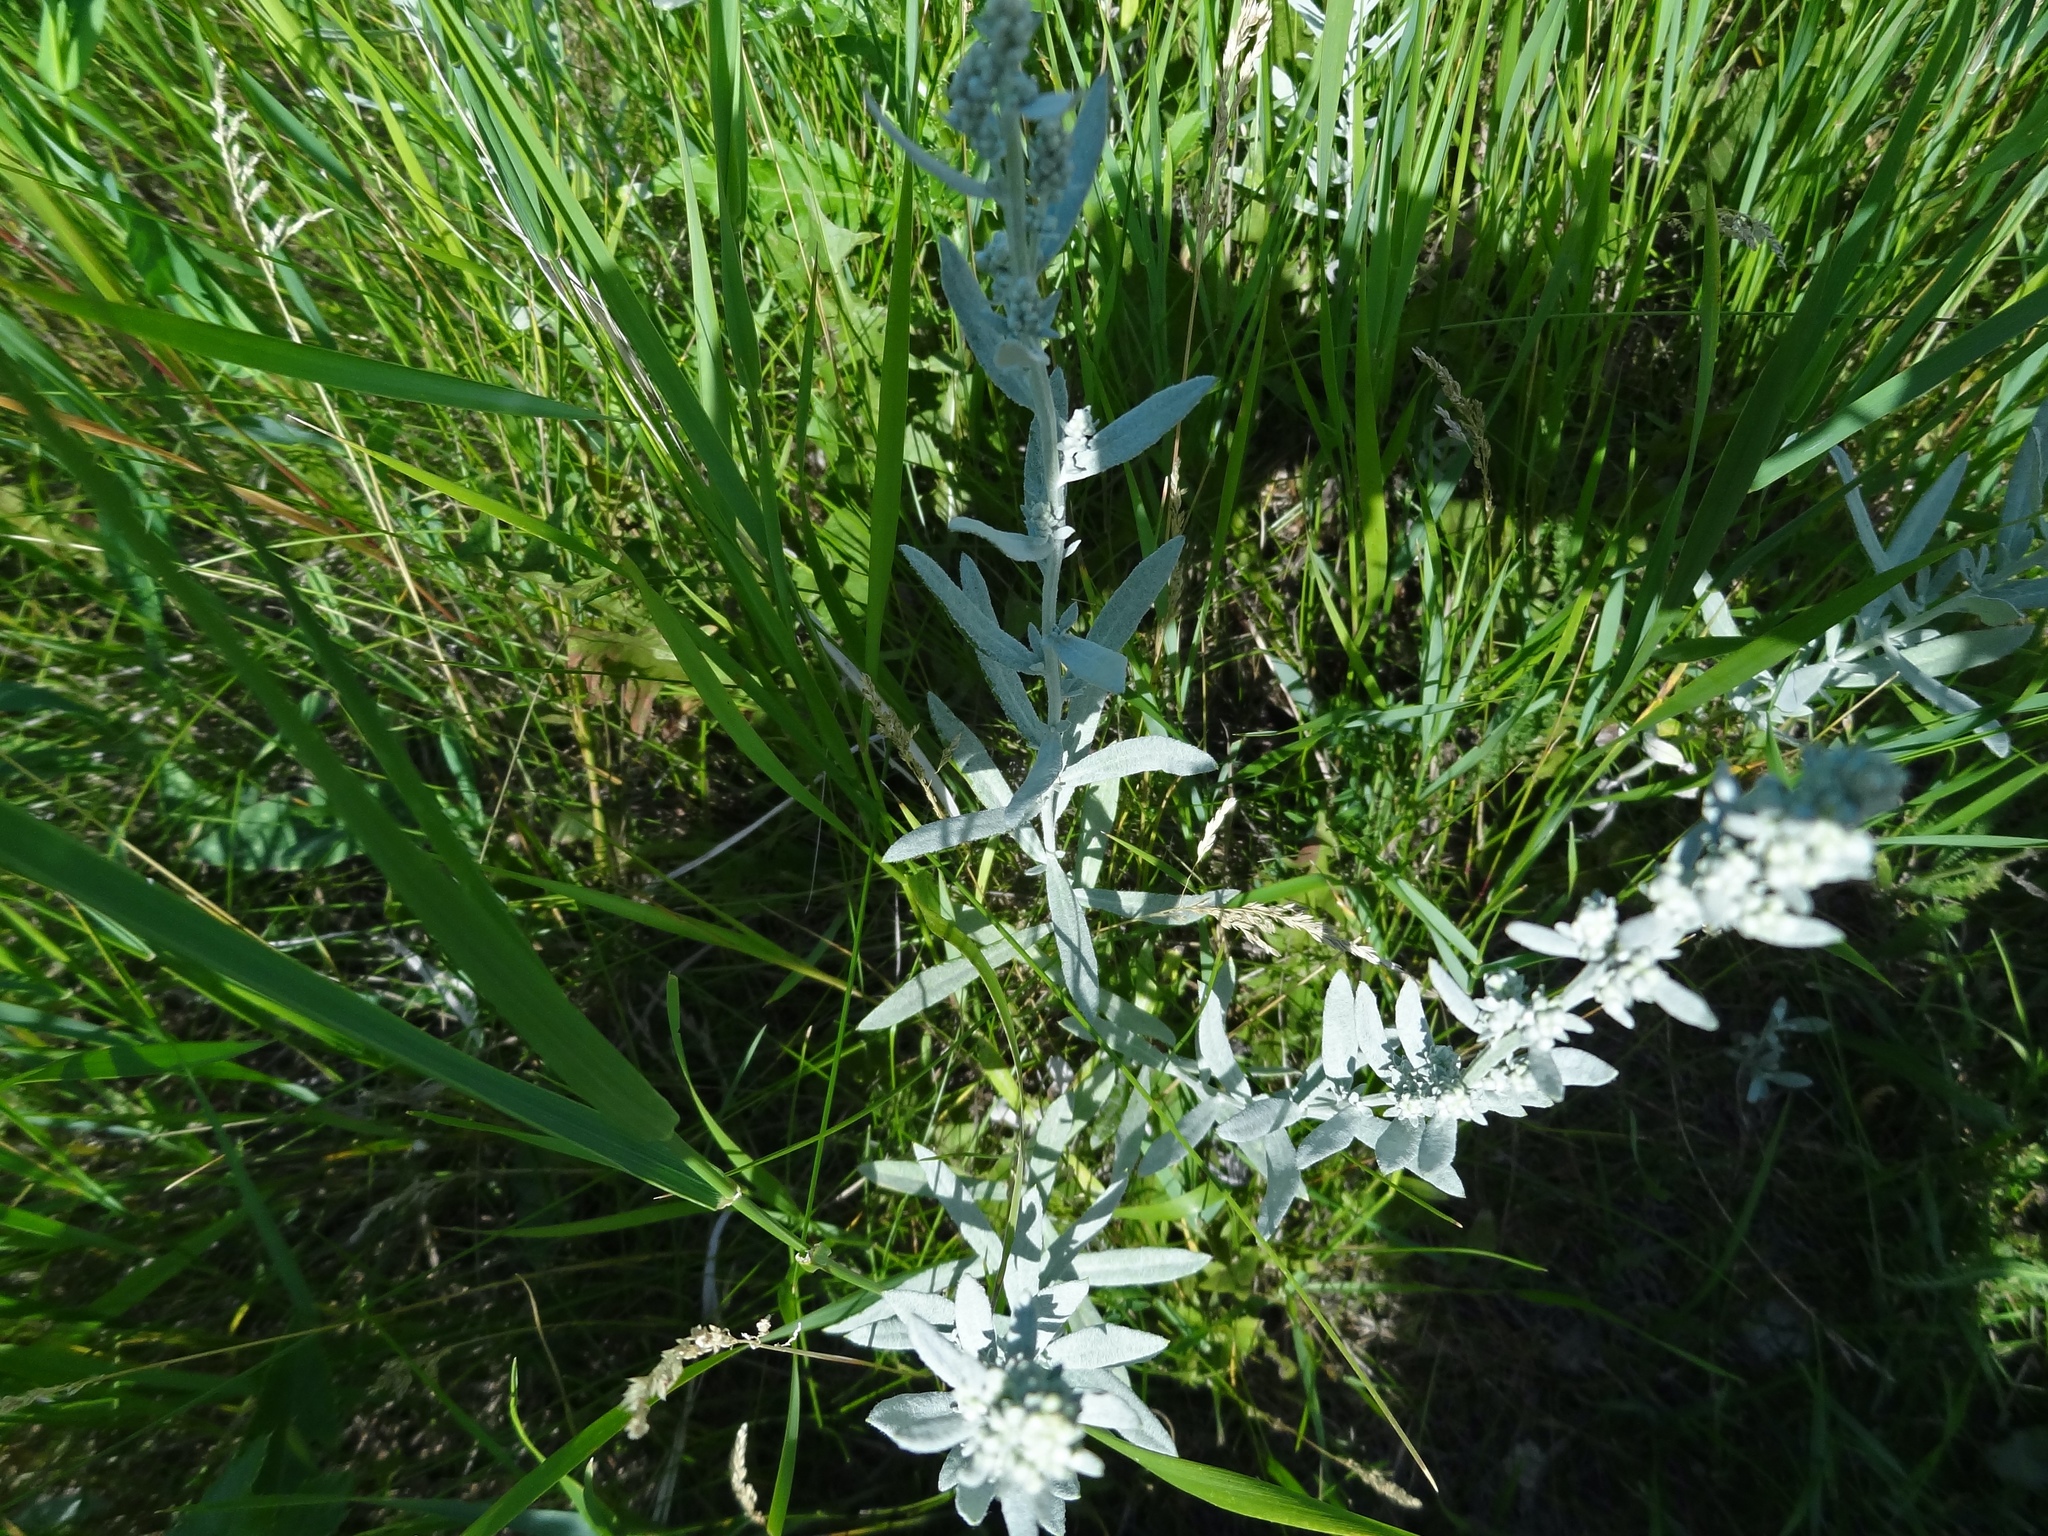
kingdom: Plantae
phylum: Tracheophyta
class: Magnoliopsida
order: Asterales
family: Asteraceae
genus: Artemisia
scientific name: Artemisia ludoviciana
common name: Western mugwort
